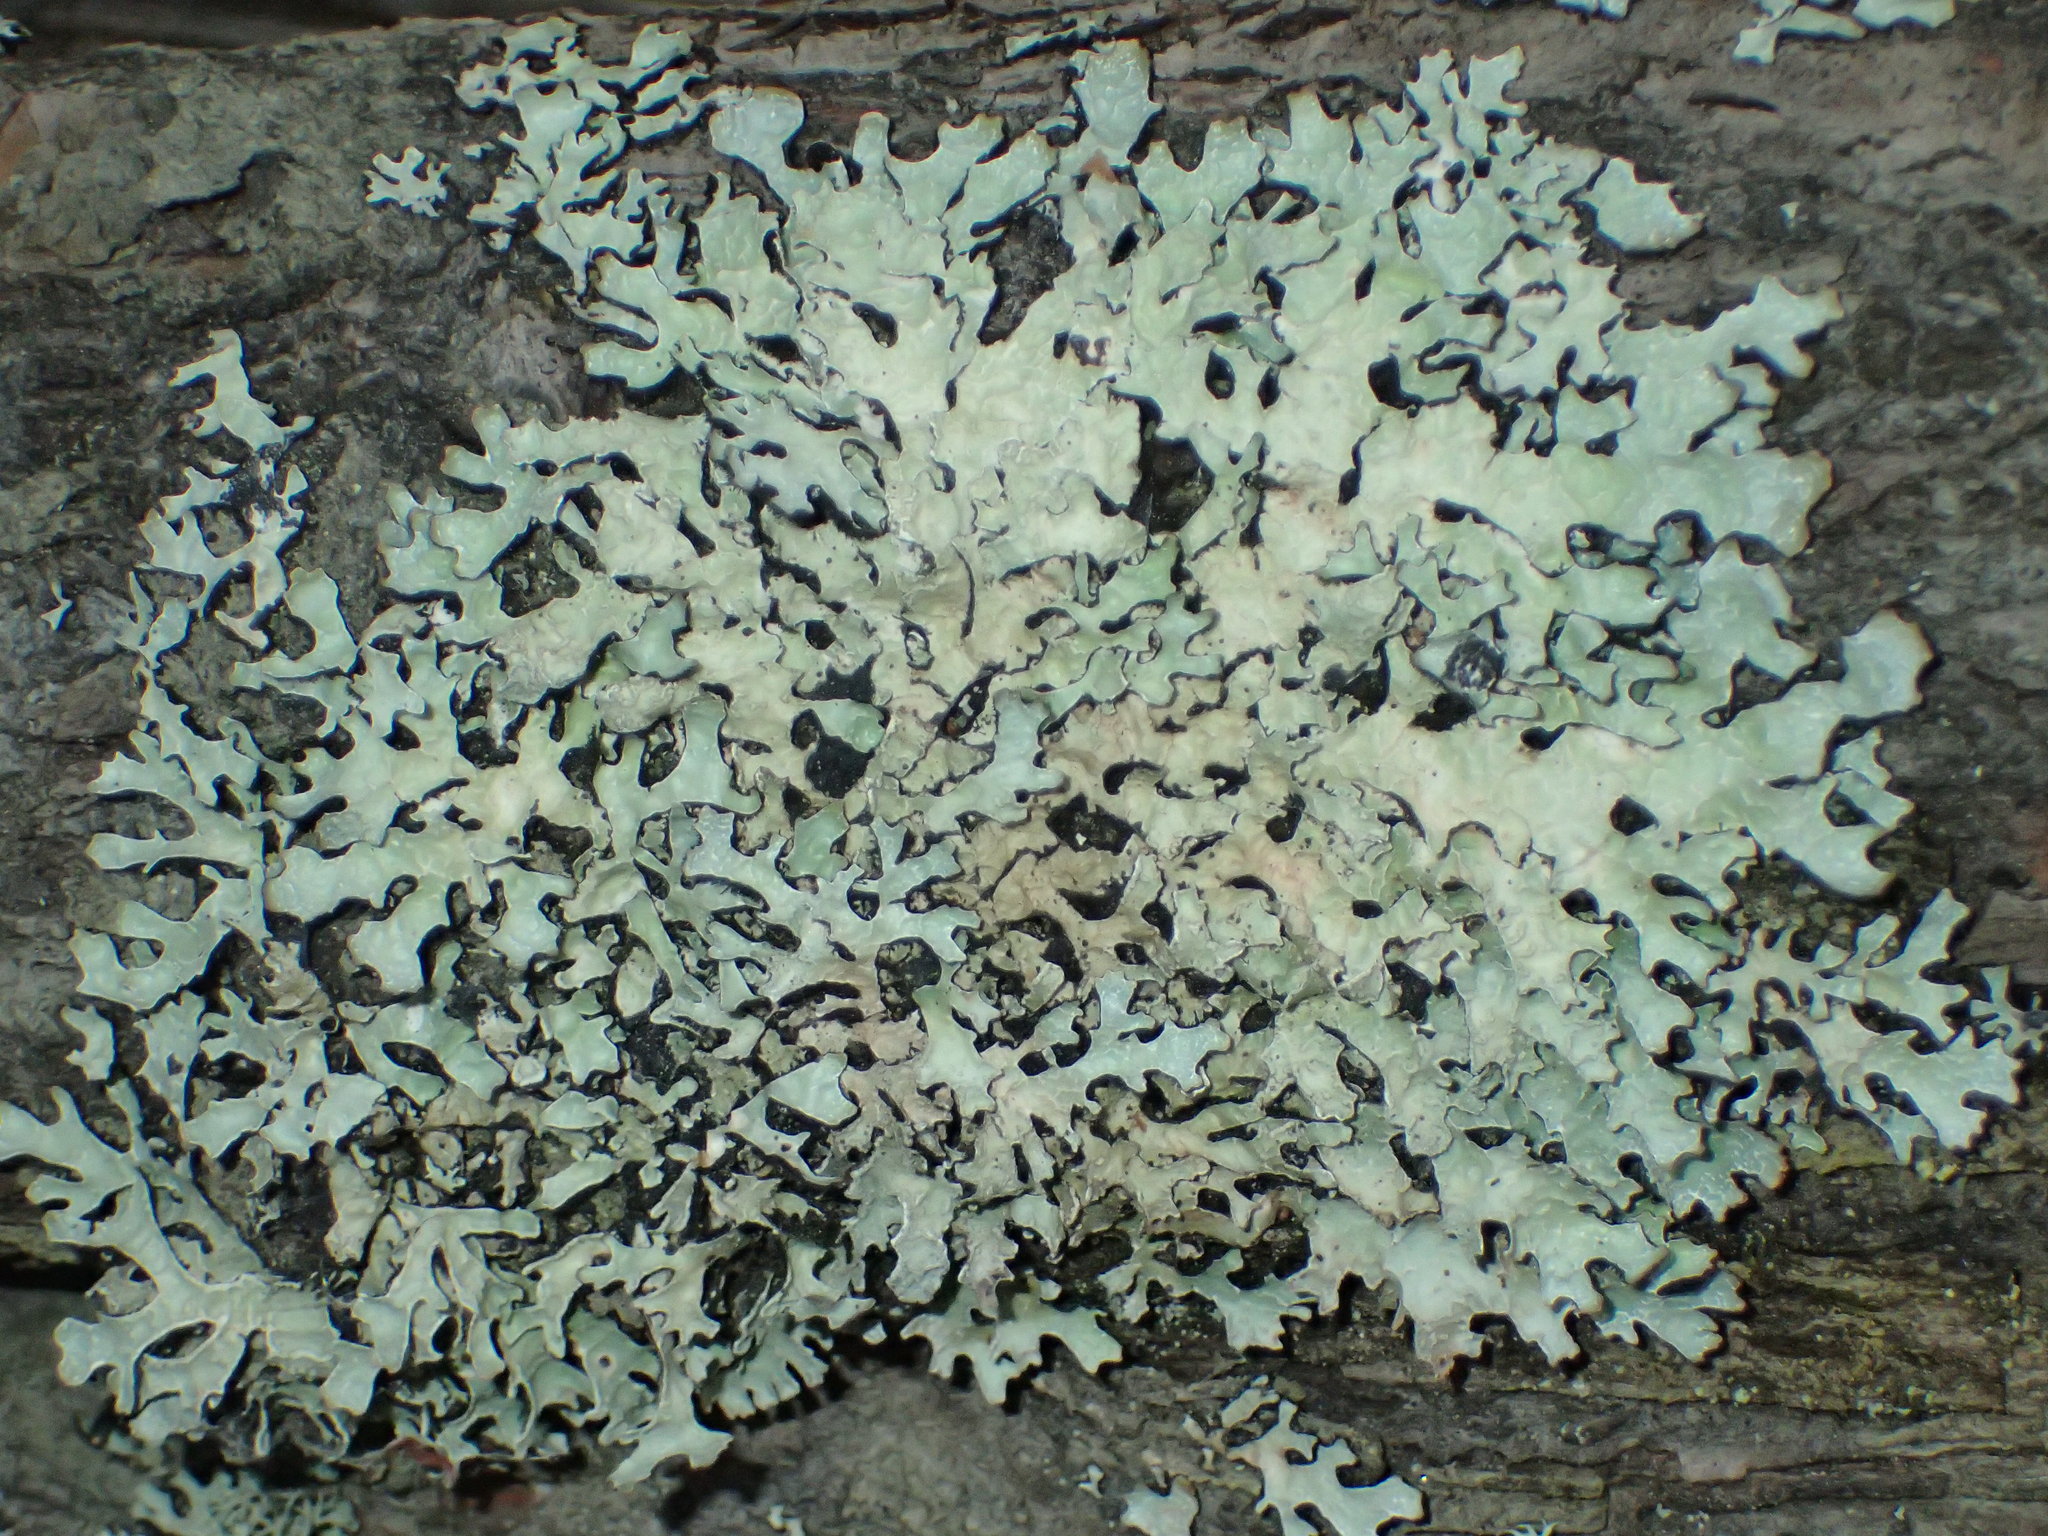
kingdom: Fungi
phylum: Ascomycota
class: Lecanoromycetes
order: Lecanorales
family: Parmeliaceae
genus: Parmelia
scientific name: Parmelia sulcata
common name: Netted shield lichen
